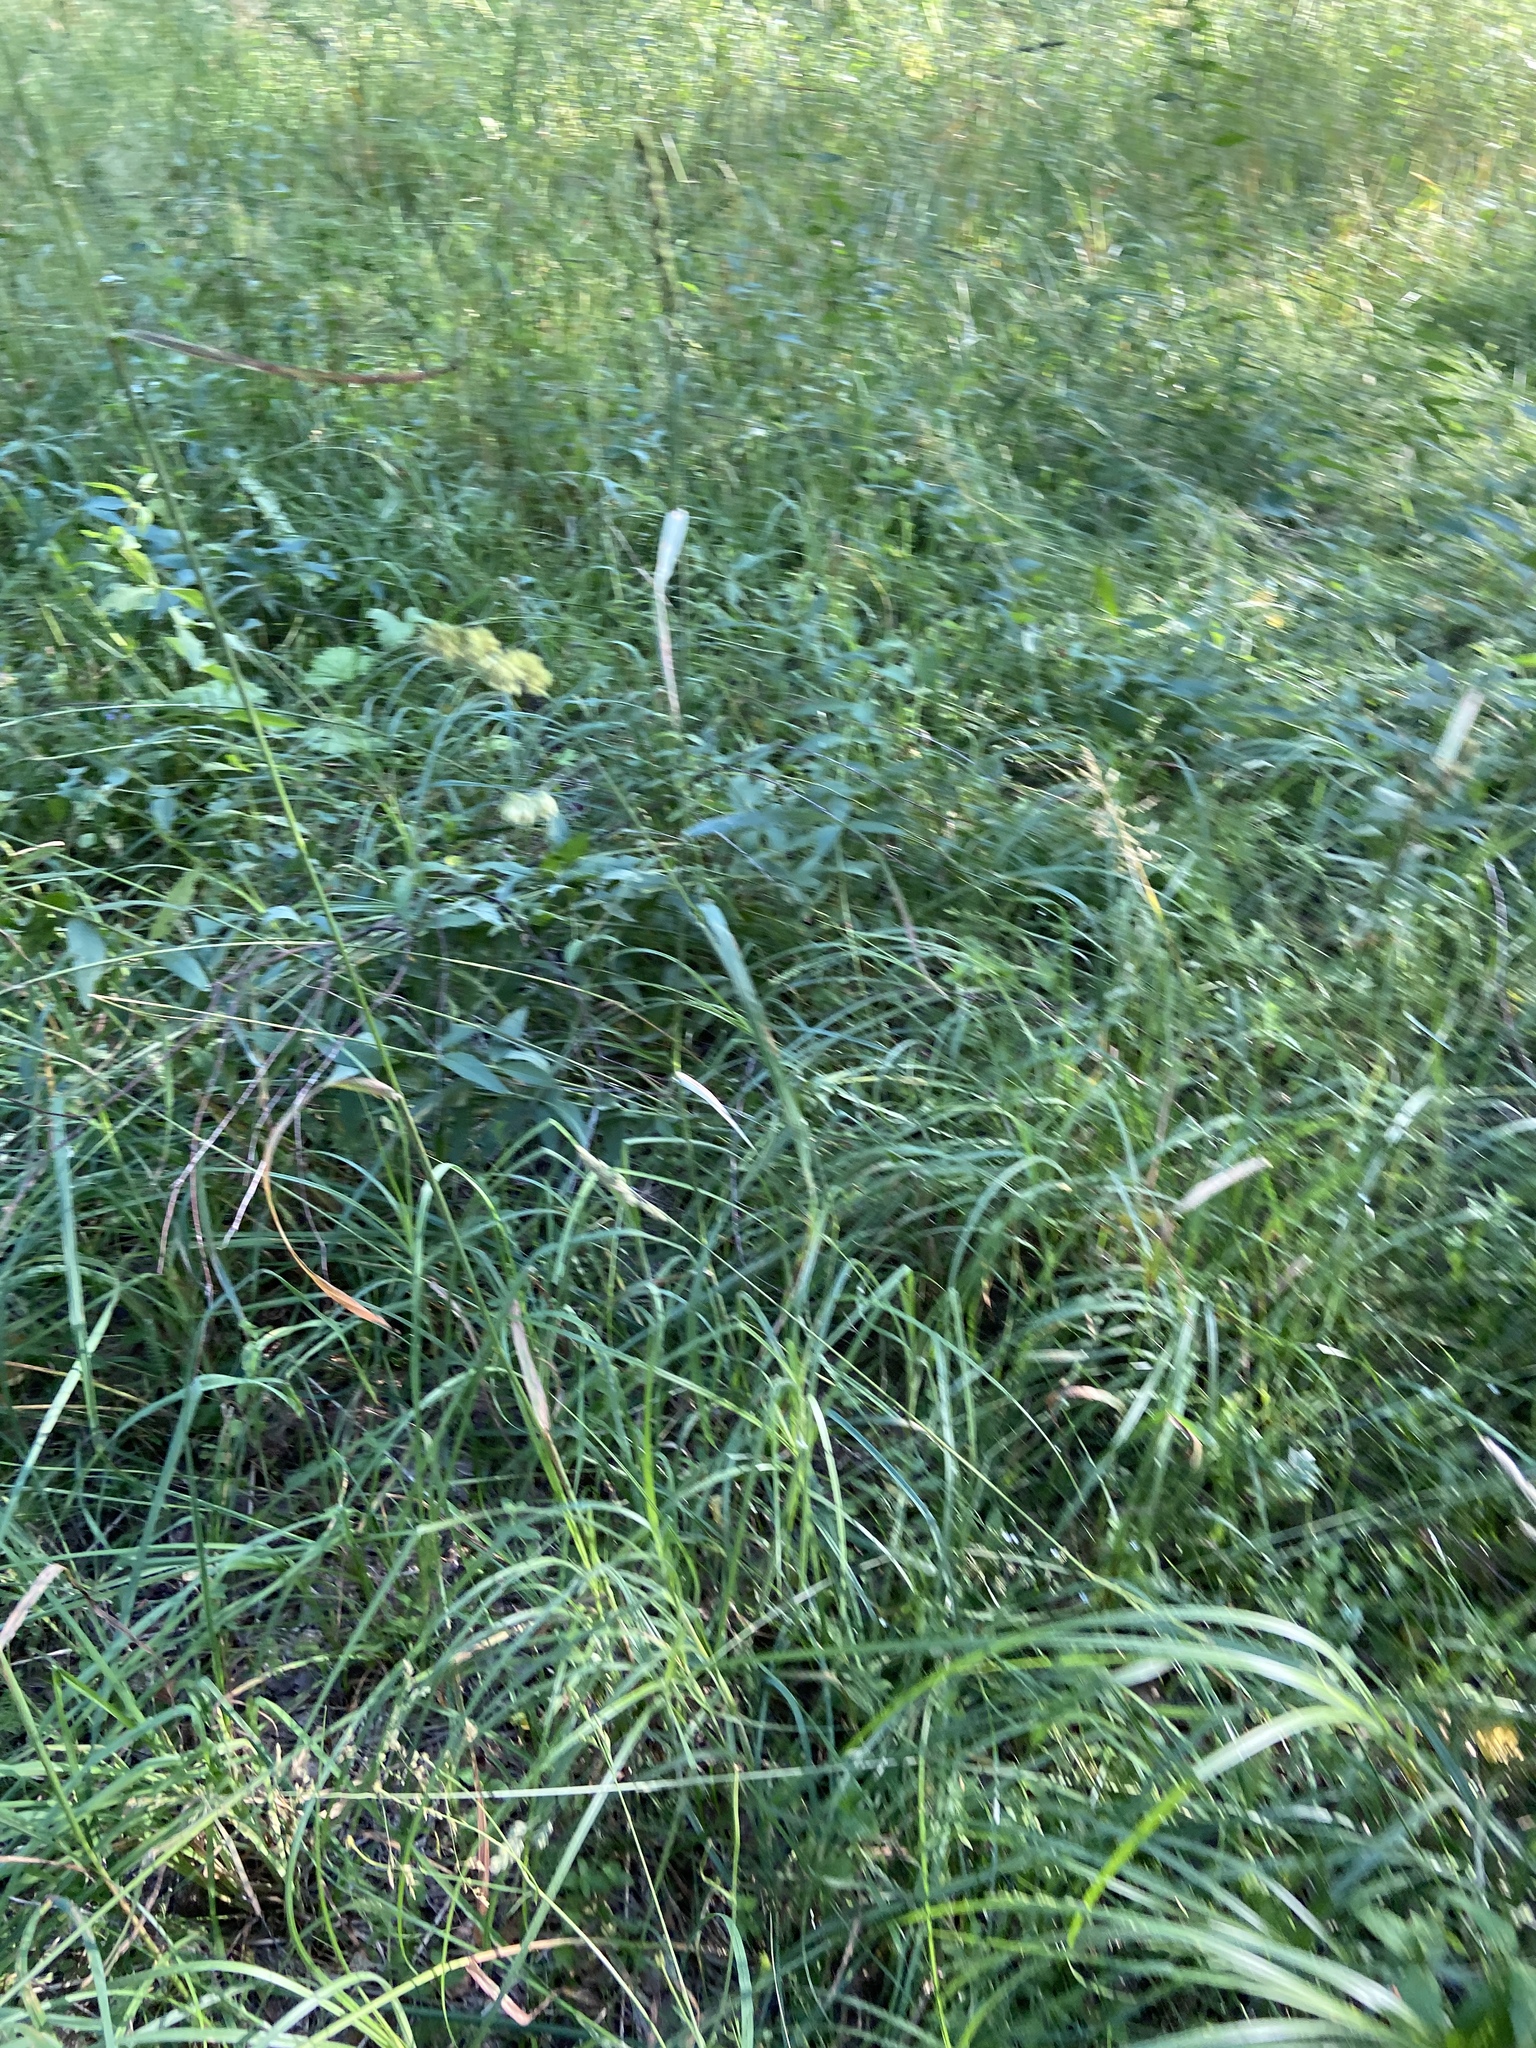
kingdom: Plantae
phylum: Tracheophyta
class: Liliopsida
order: Poales
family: Poaceae
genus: Dactylis
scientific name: Dactylis glomerata
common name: Orchardgrass
